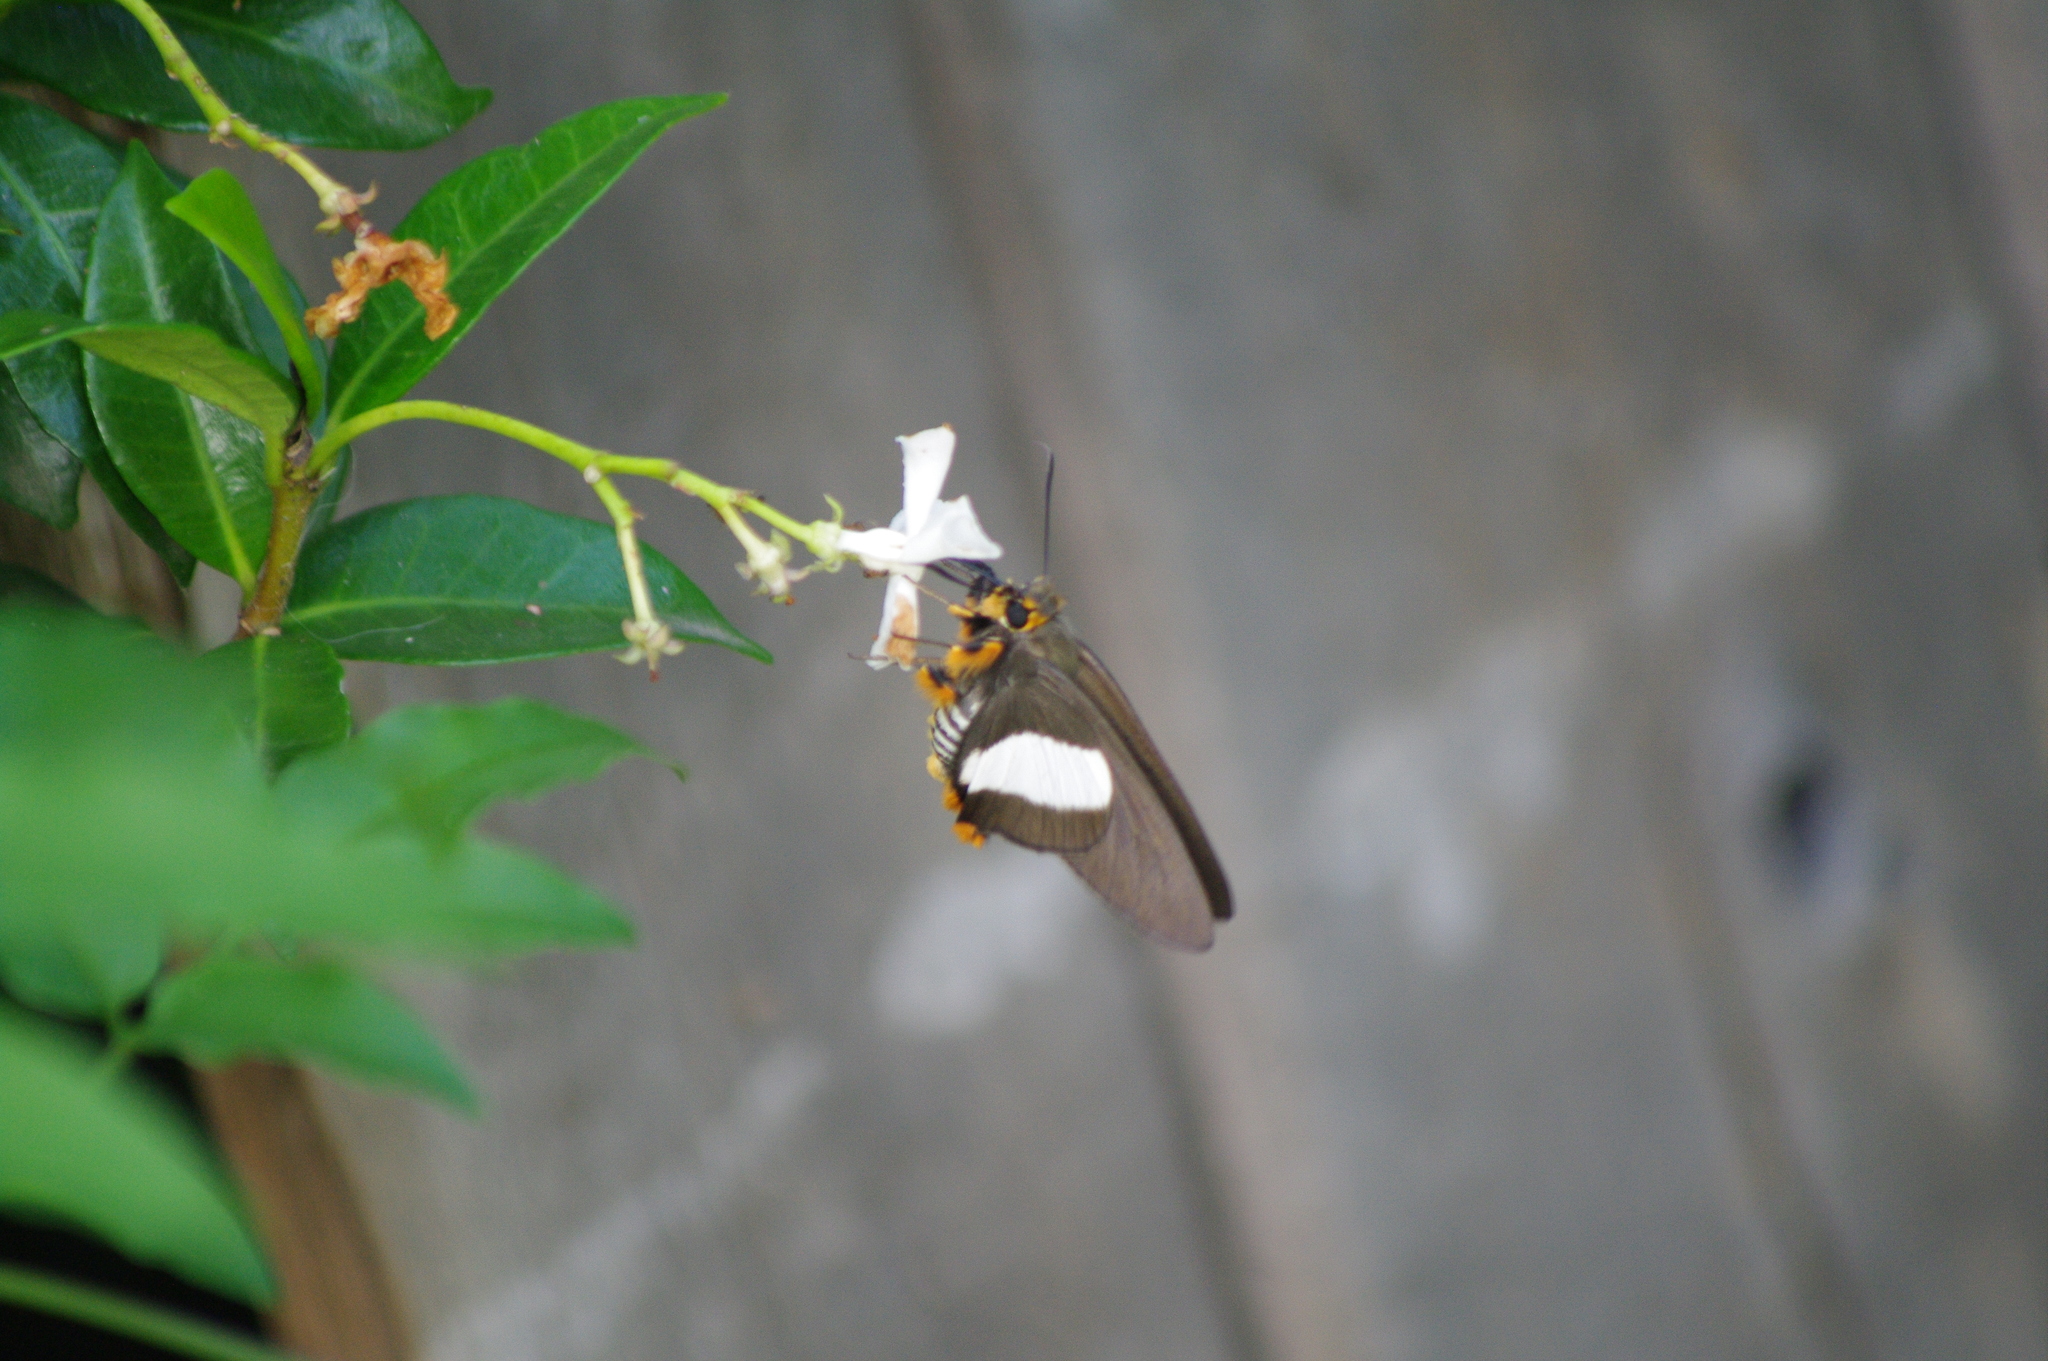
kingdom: Animalia
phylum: Arthropoda
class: Insecta
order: Lepidoptera
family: Hesperiidae
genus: Coeliades
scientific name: Coeliades forestan
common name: Striped policeman
